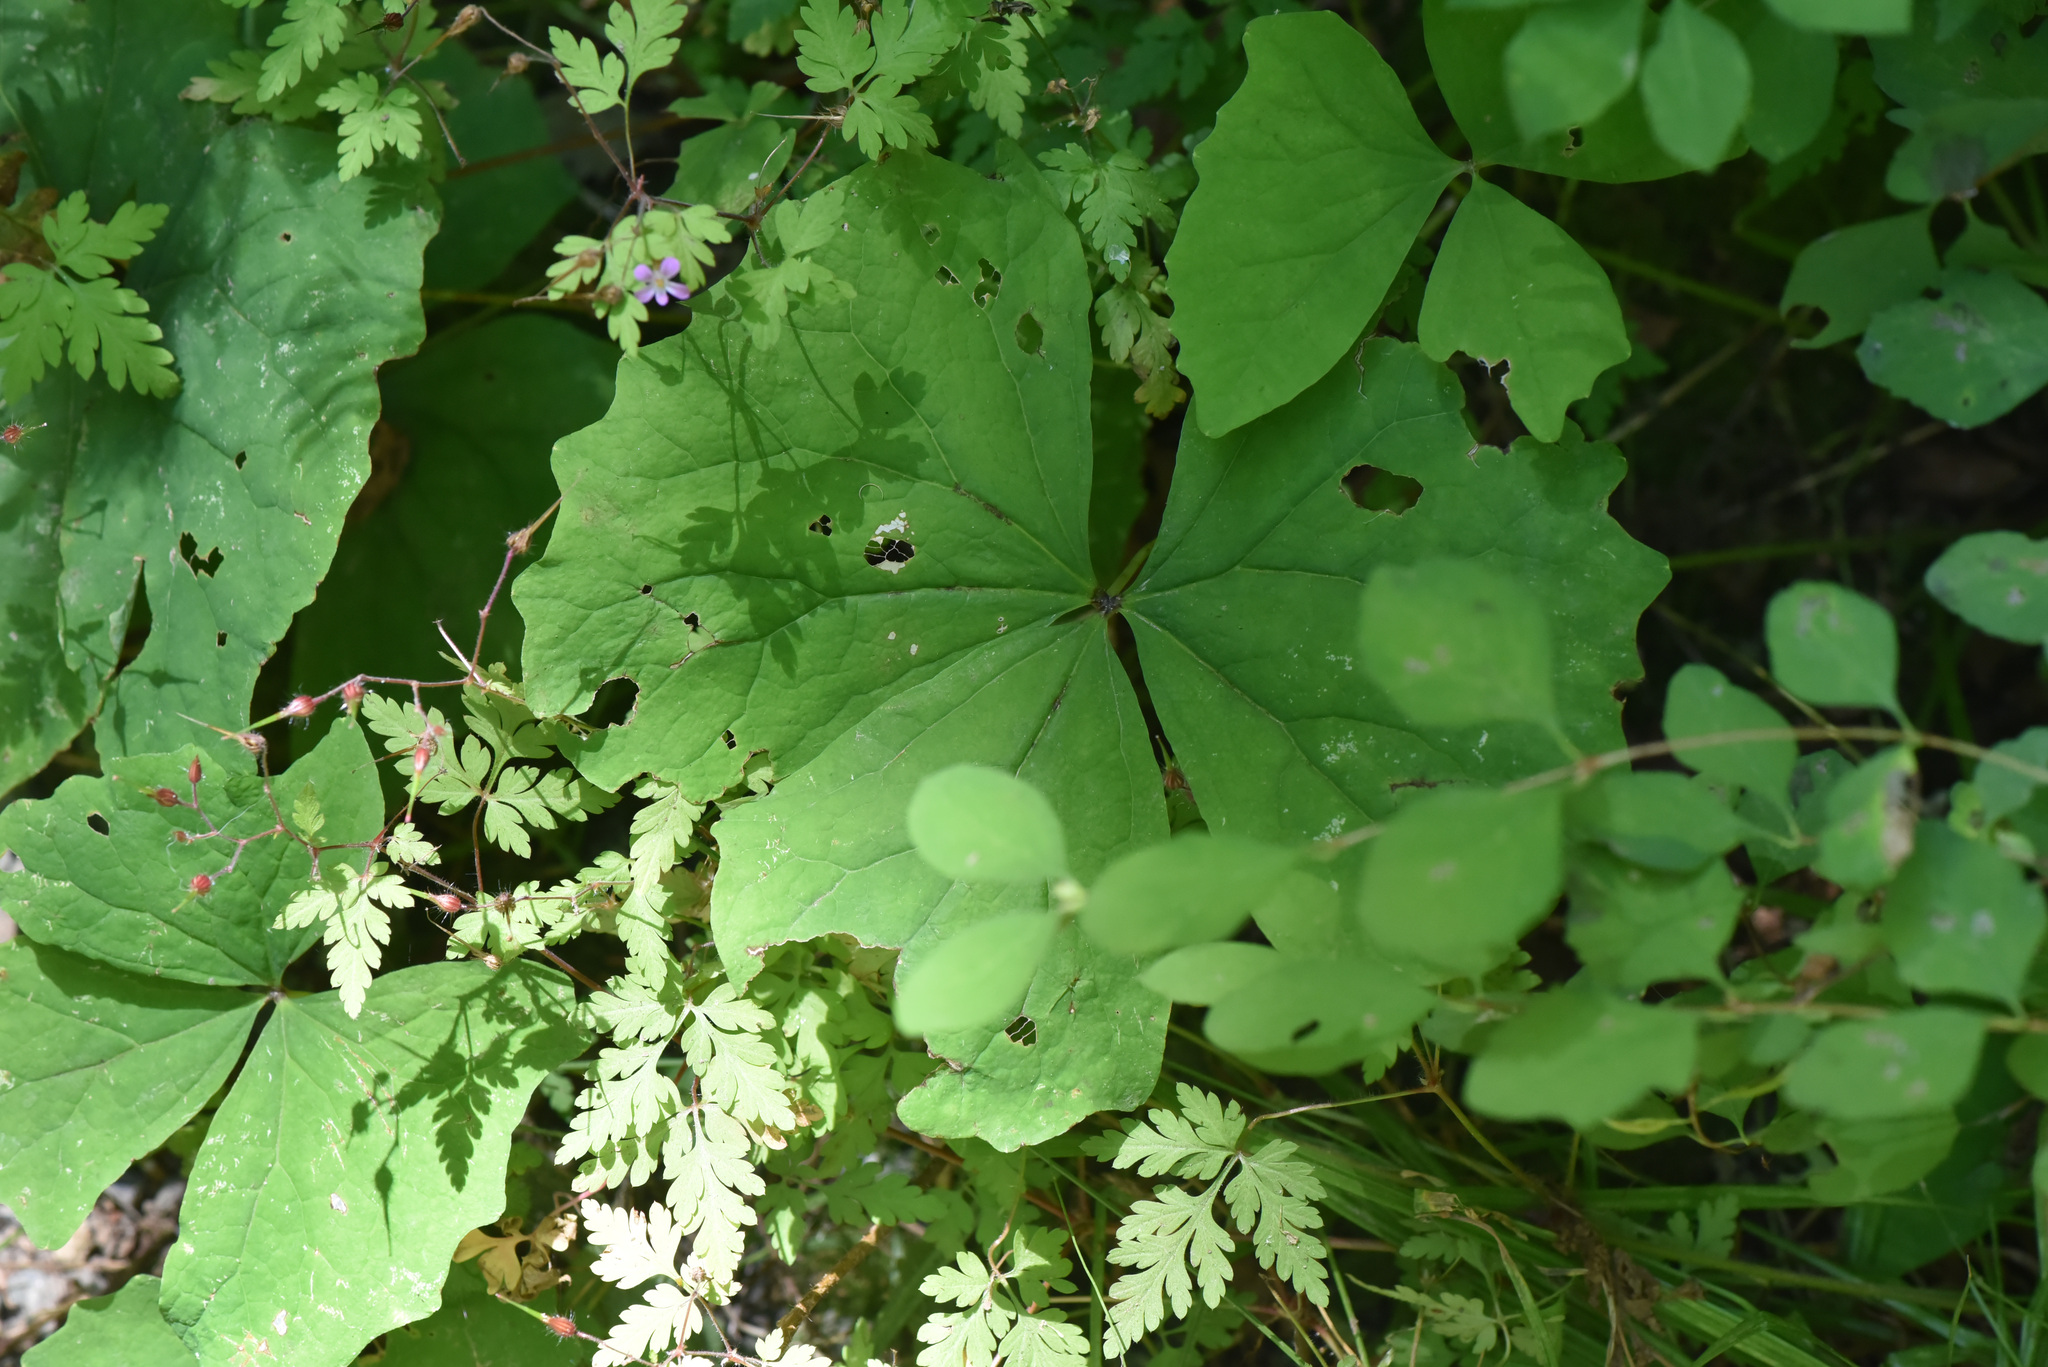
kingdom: Plantae
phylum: Tracheophyta
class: Magnoliopsida
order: Ranunculales
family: Berberidaceae
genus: Achlys
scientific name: Achlys triphylla
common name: Vanilla-leaf
